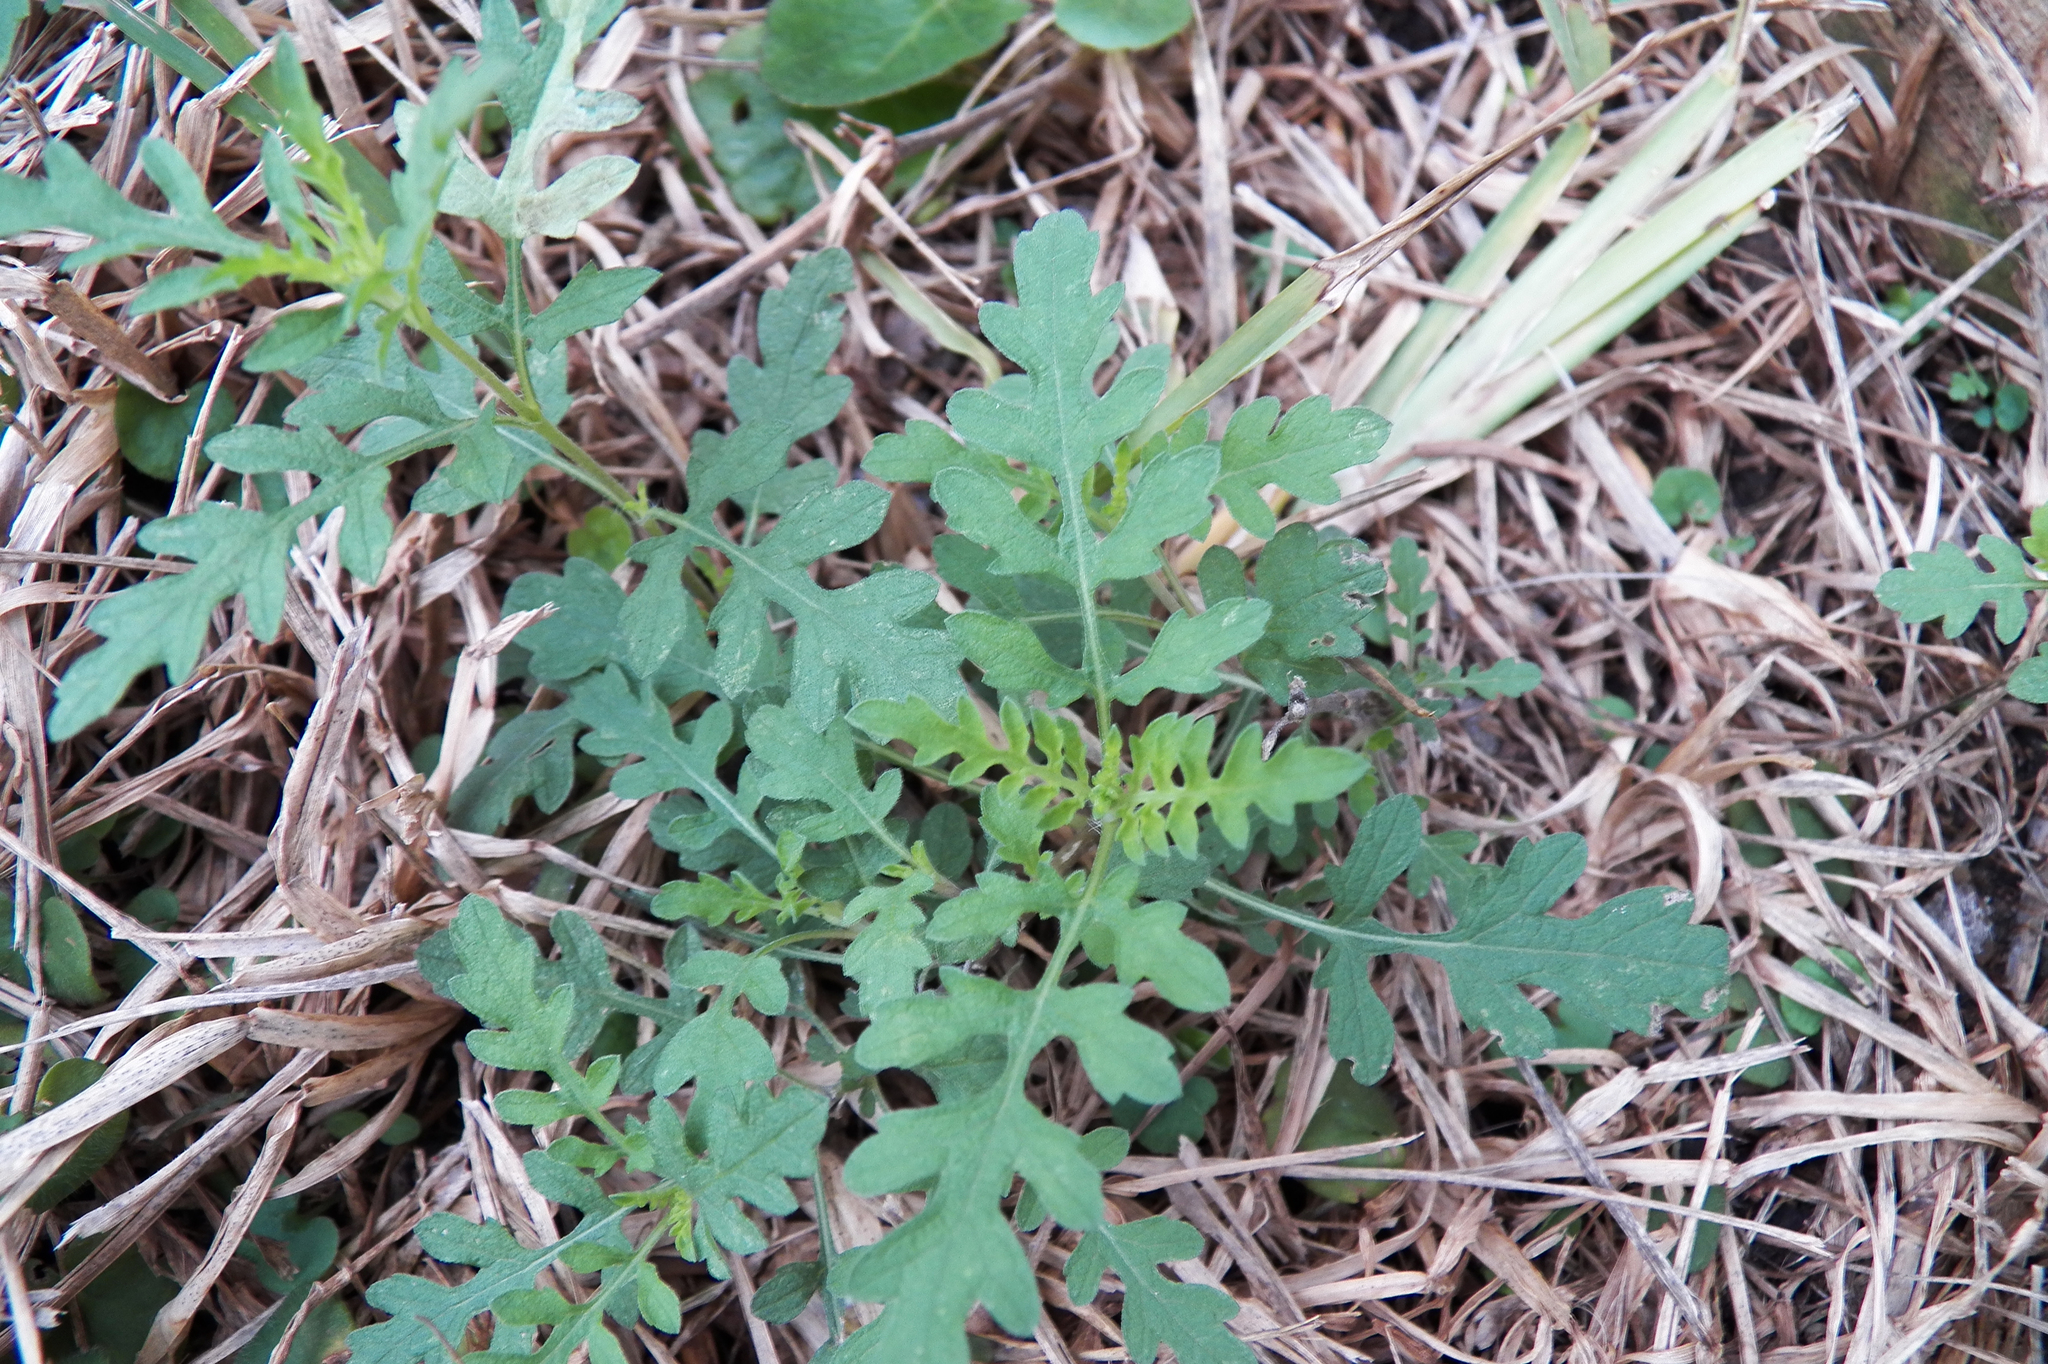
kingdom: Plantae
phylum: Tracheophyta
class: Magnoliopsida
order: Asterales
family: Asteraceae
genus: Ambrosia
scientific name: Ambrosia psilostachya
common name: Perennial ragweed
